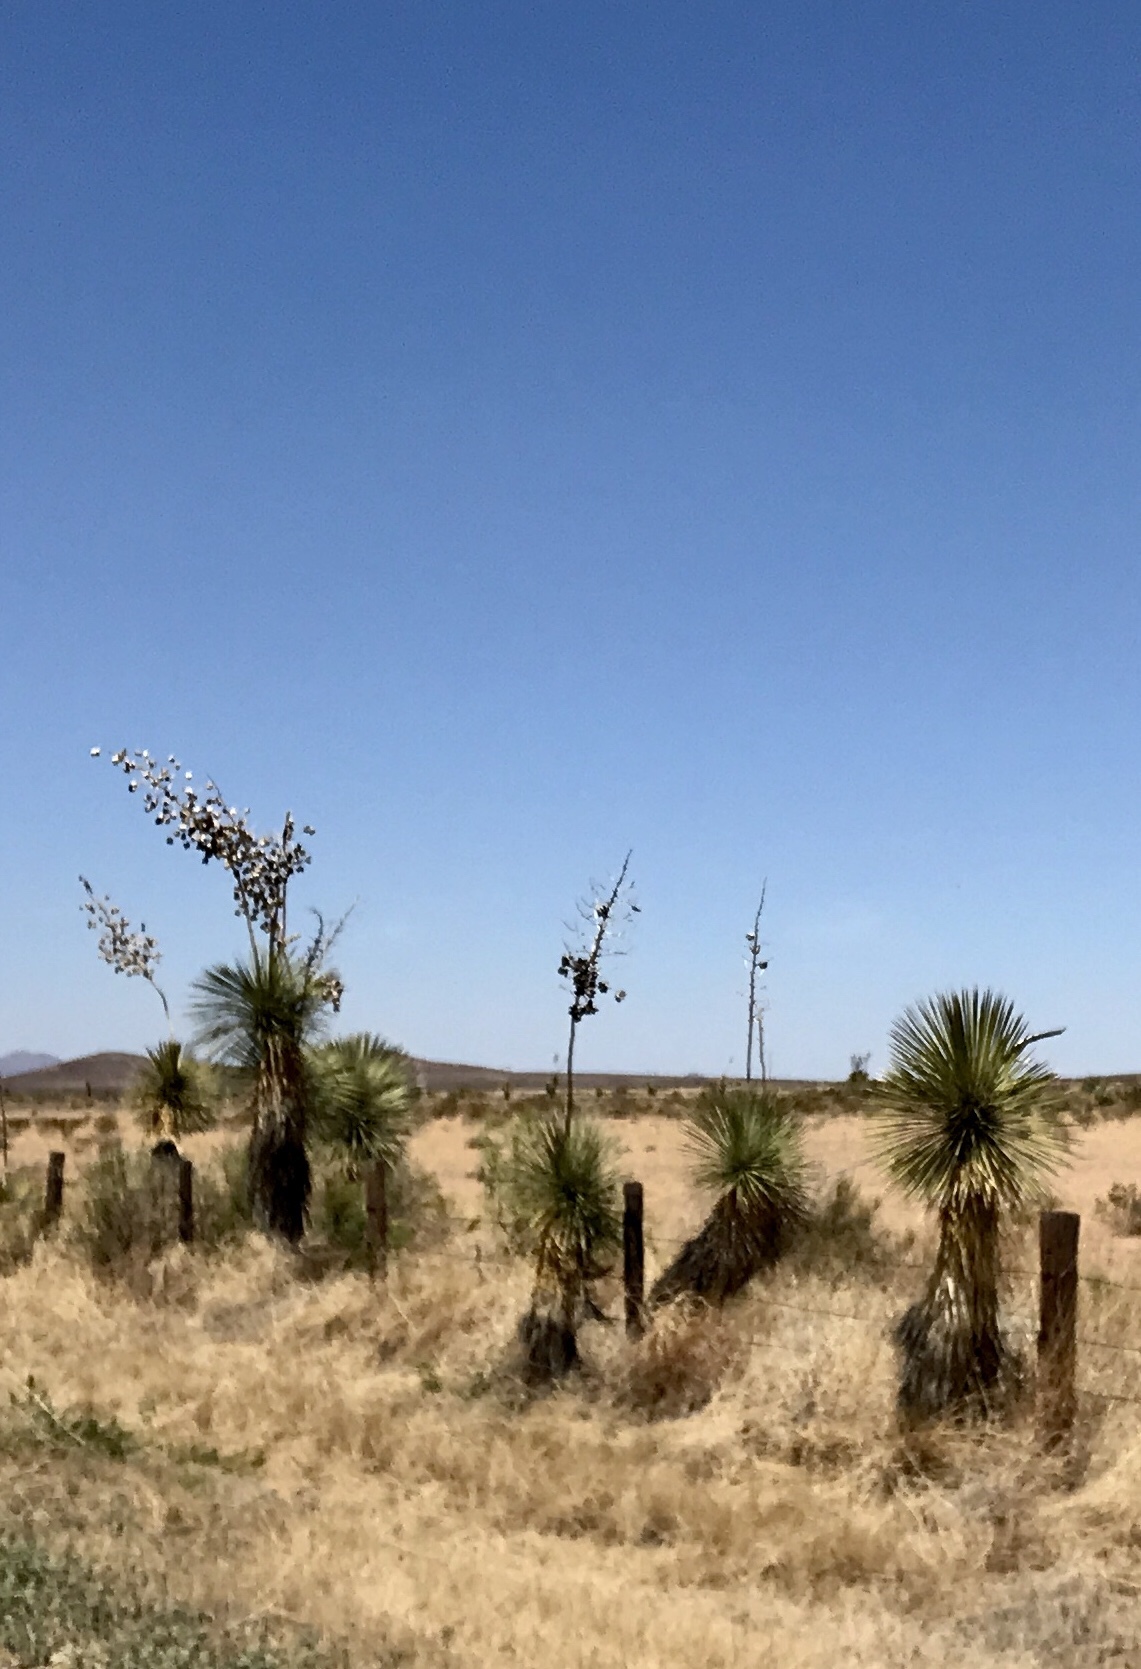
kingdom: Plantae
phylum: Tracheophyta
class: Liliopsida
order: Asparagales
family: Asparagaceae
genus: Yucca
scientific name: Yucca elata
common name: Palmella
